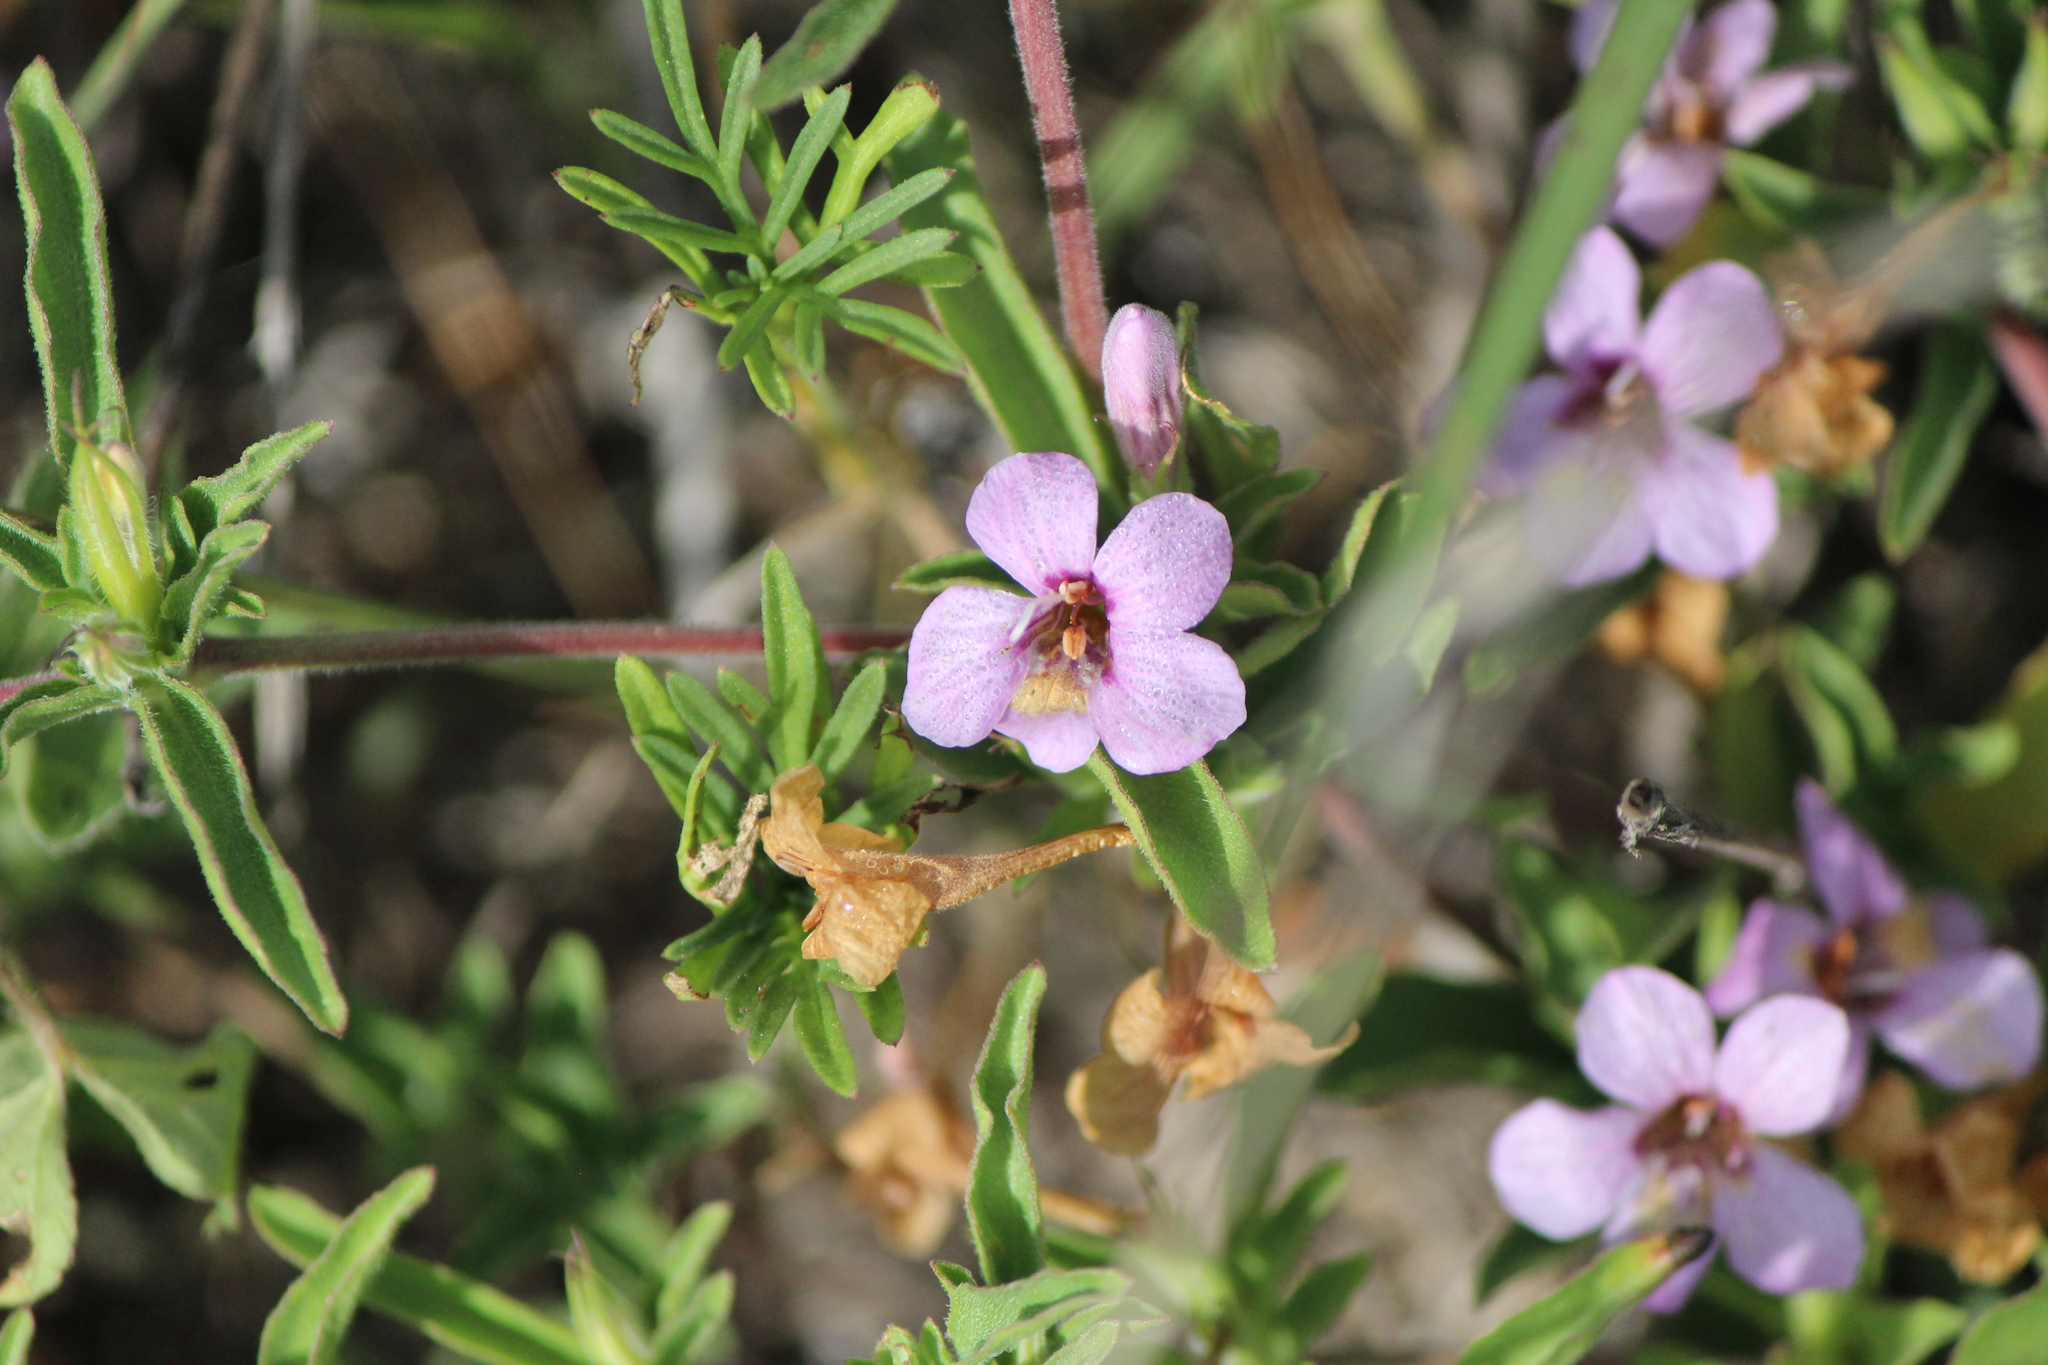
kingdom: Plantae
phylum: Tracheophyta
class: Magnoliopsida
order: Lamiales
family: Acanthaceae
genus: Dyschoriste
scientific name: Dyschoriste schiedeana
